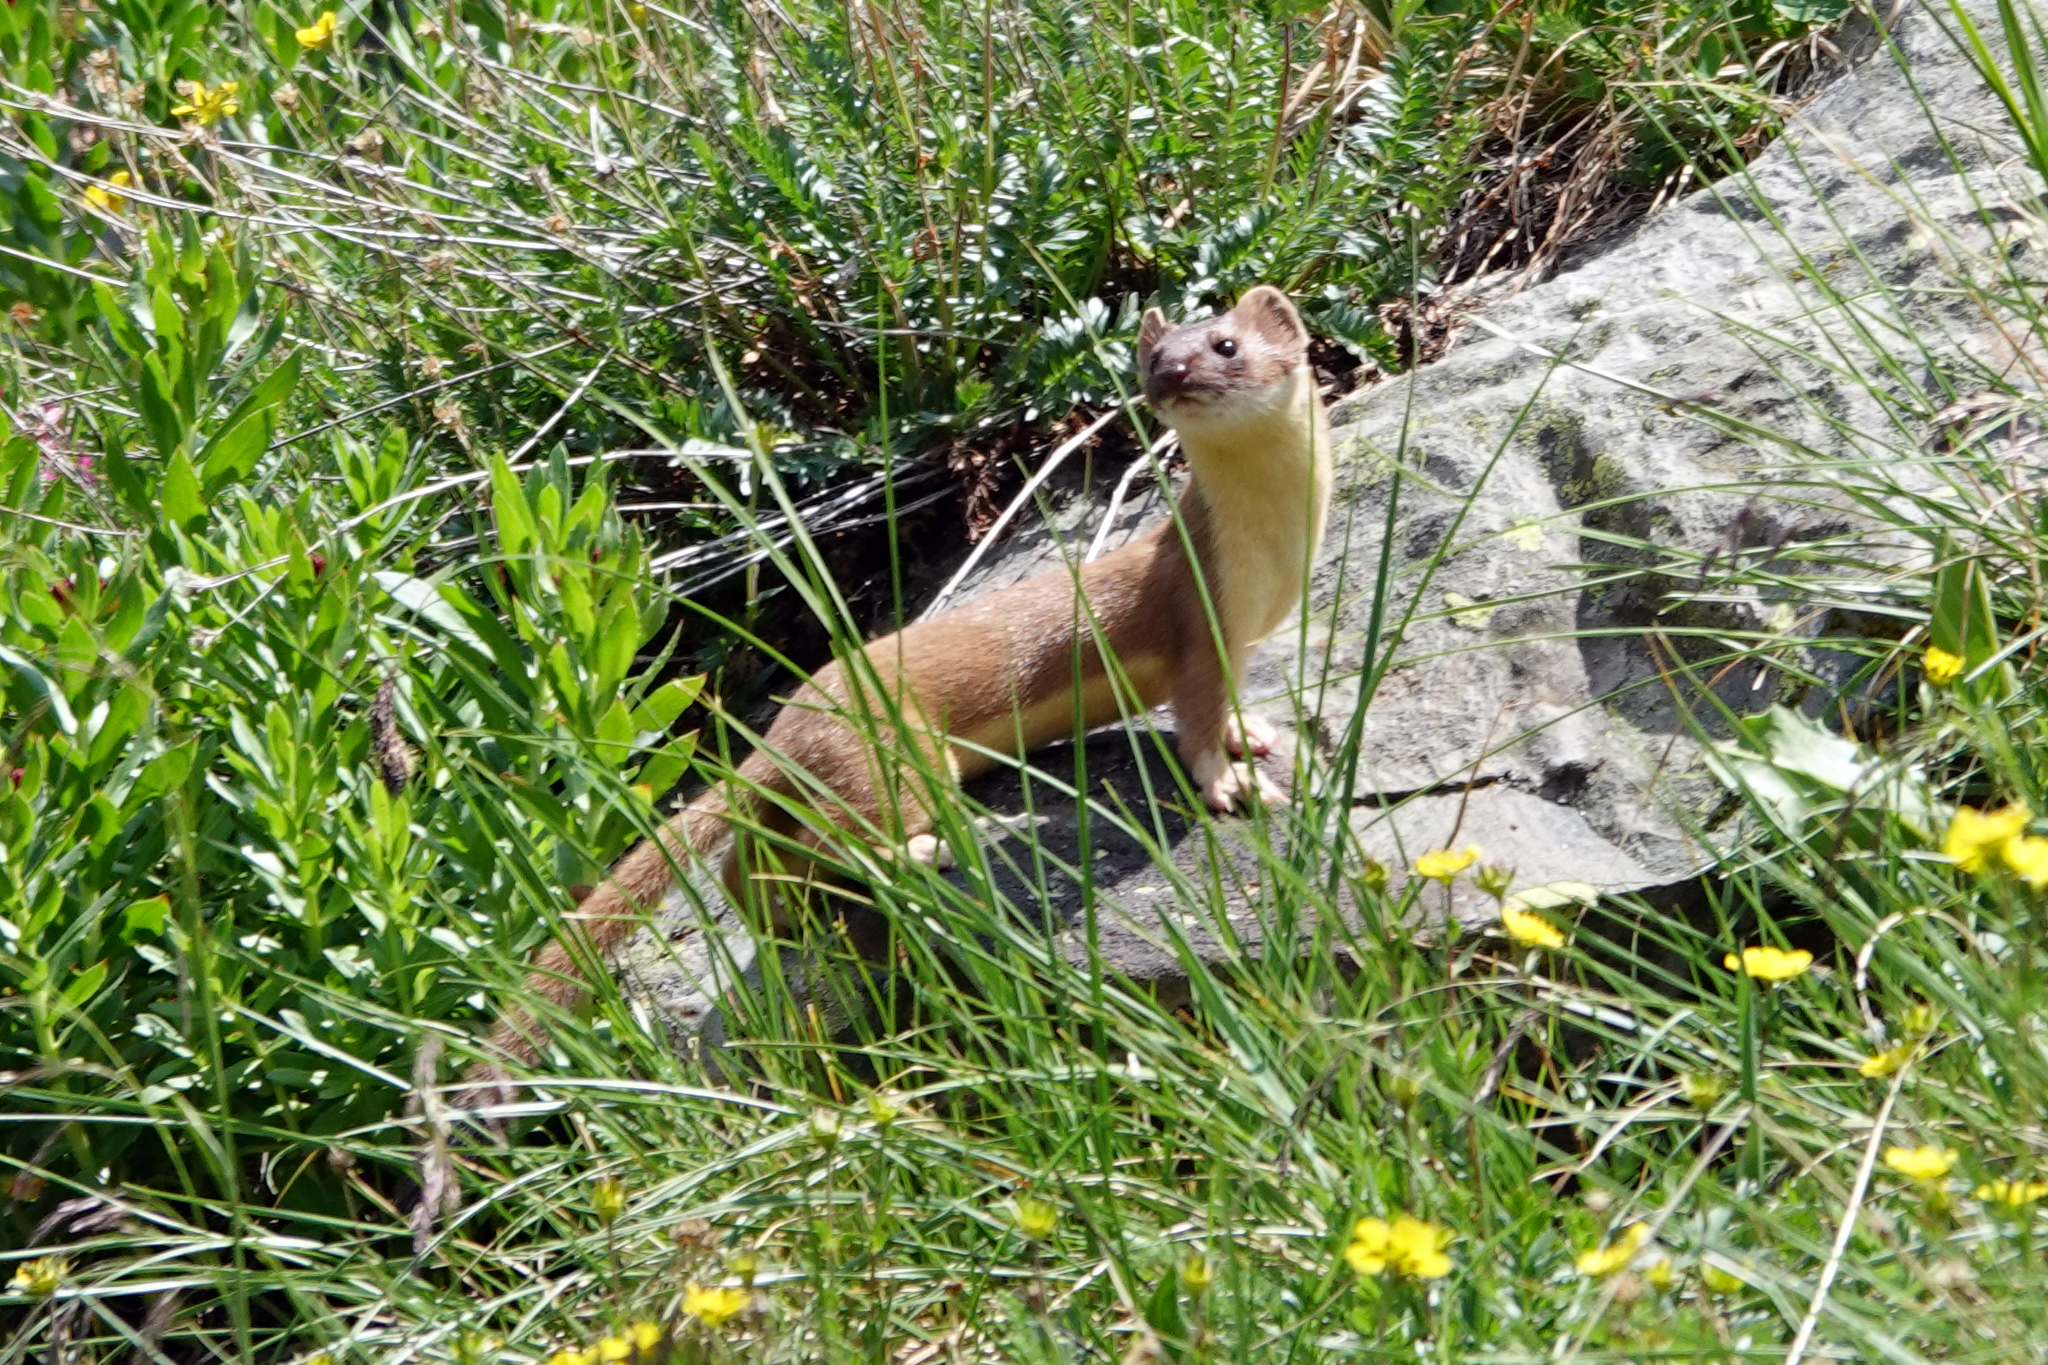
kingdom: Animalia
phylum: Chordata
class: Mammalia
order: Carnivora
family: Mustelidae
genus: Mustela
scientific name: Mustela
